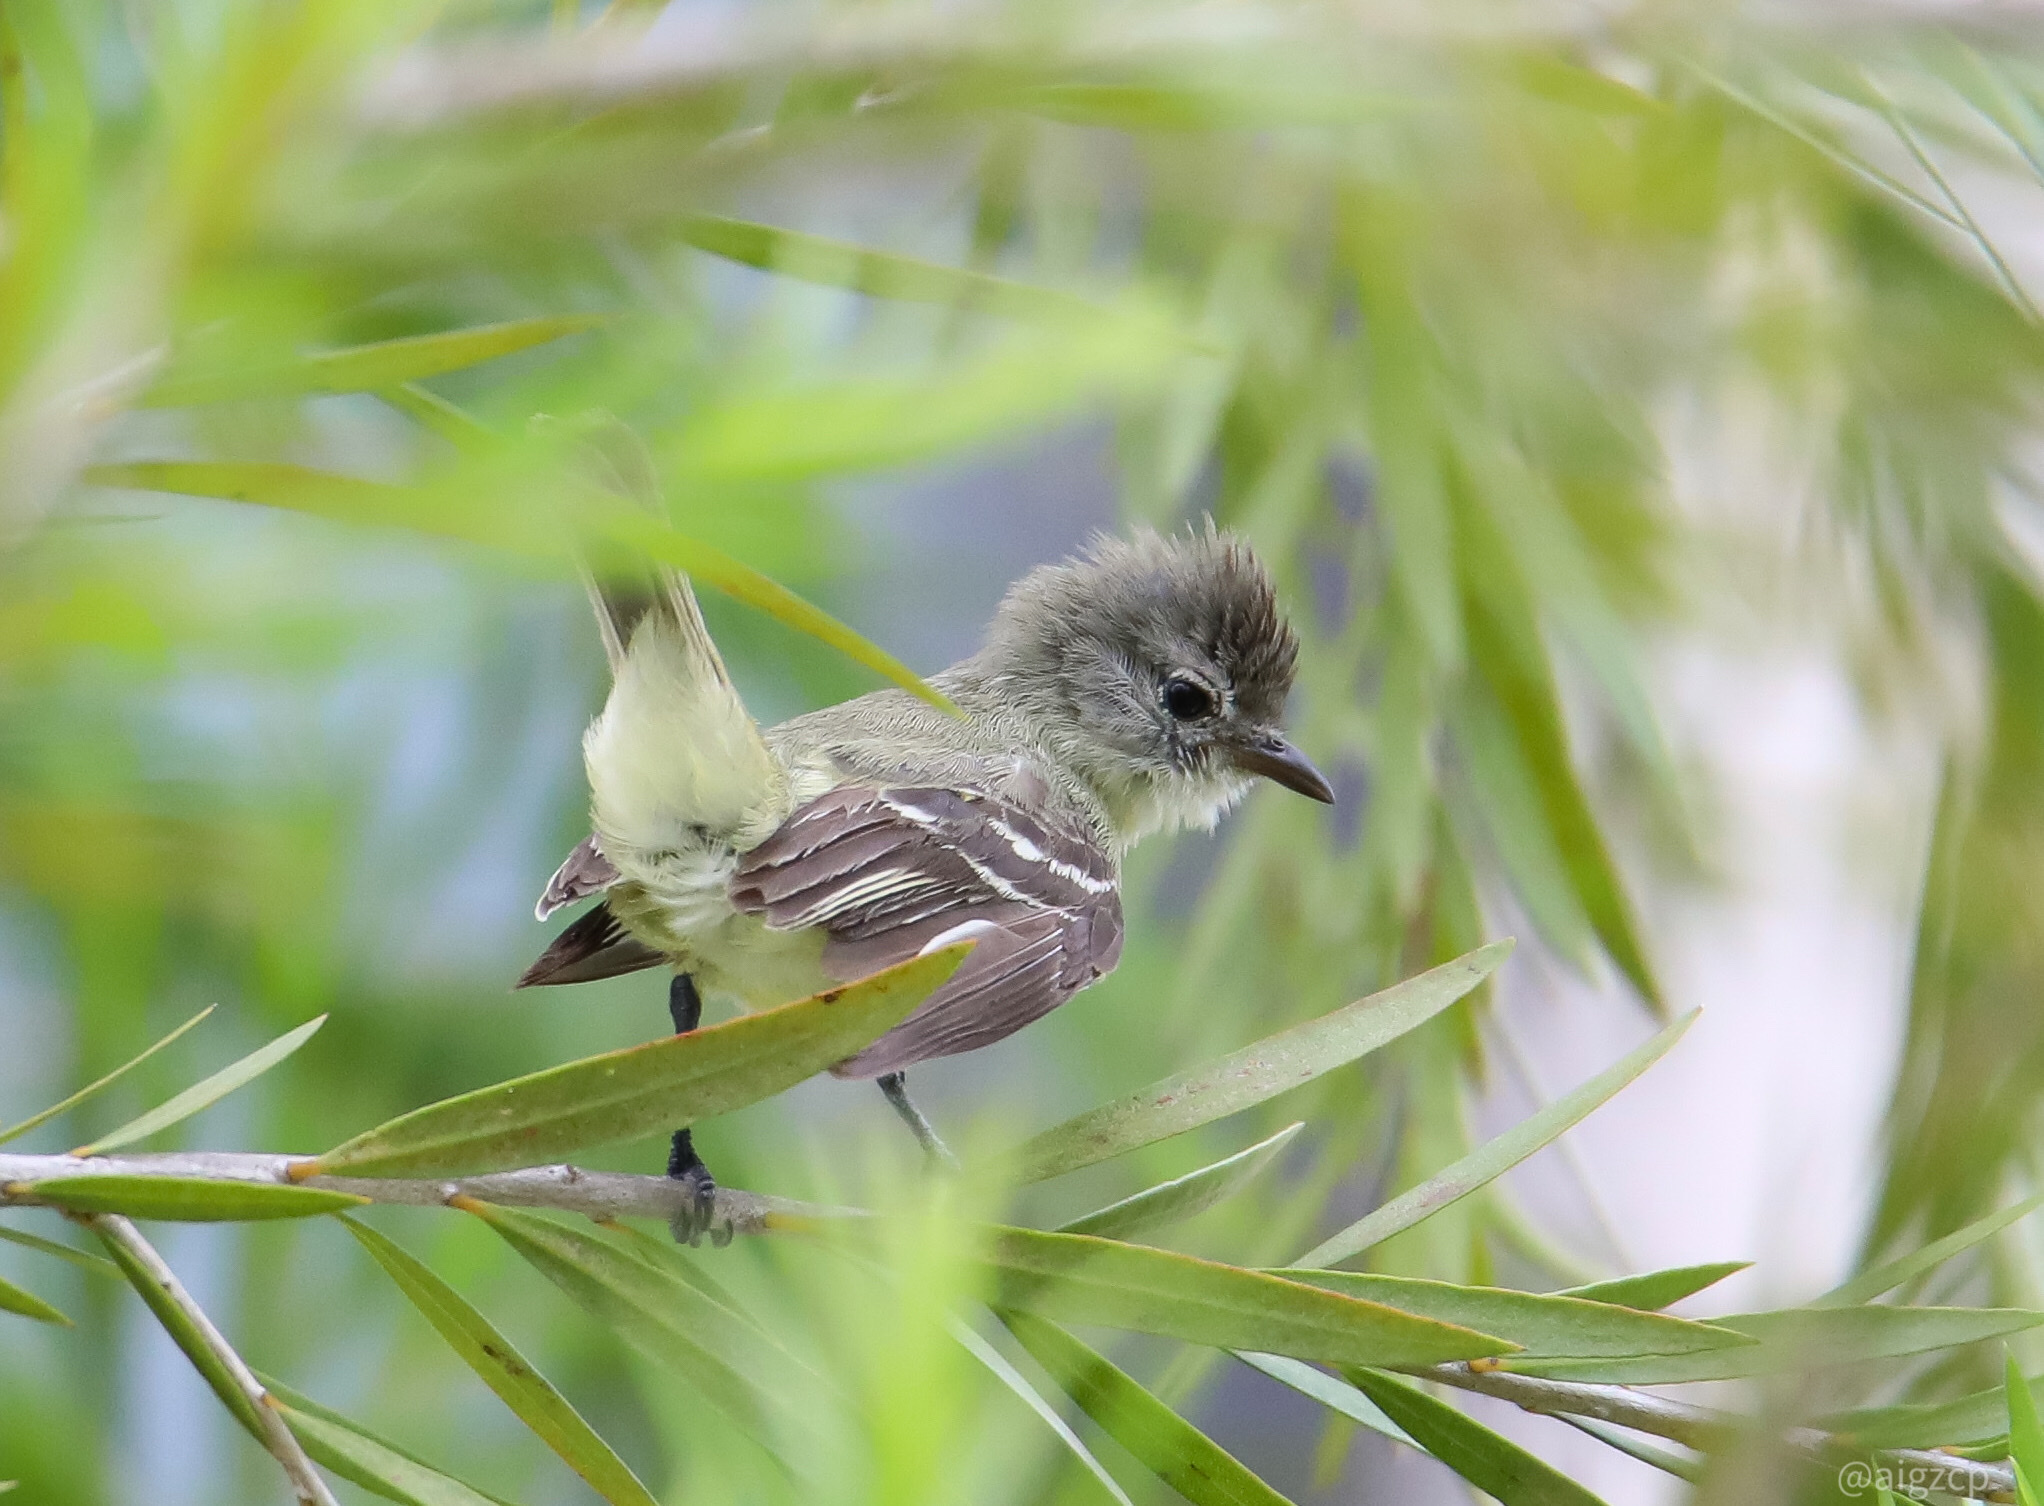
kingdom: Animalia
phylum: Chordata
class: Aves
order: Passeriformes
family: Tyrannidae
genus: Camptostoma
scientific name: Camptostoma obsoletum
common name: Southern beardless-tyrannulet
